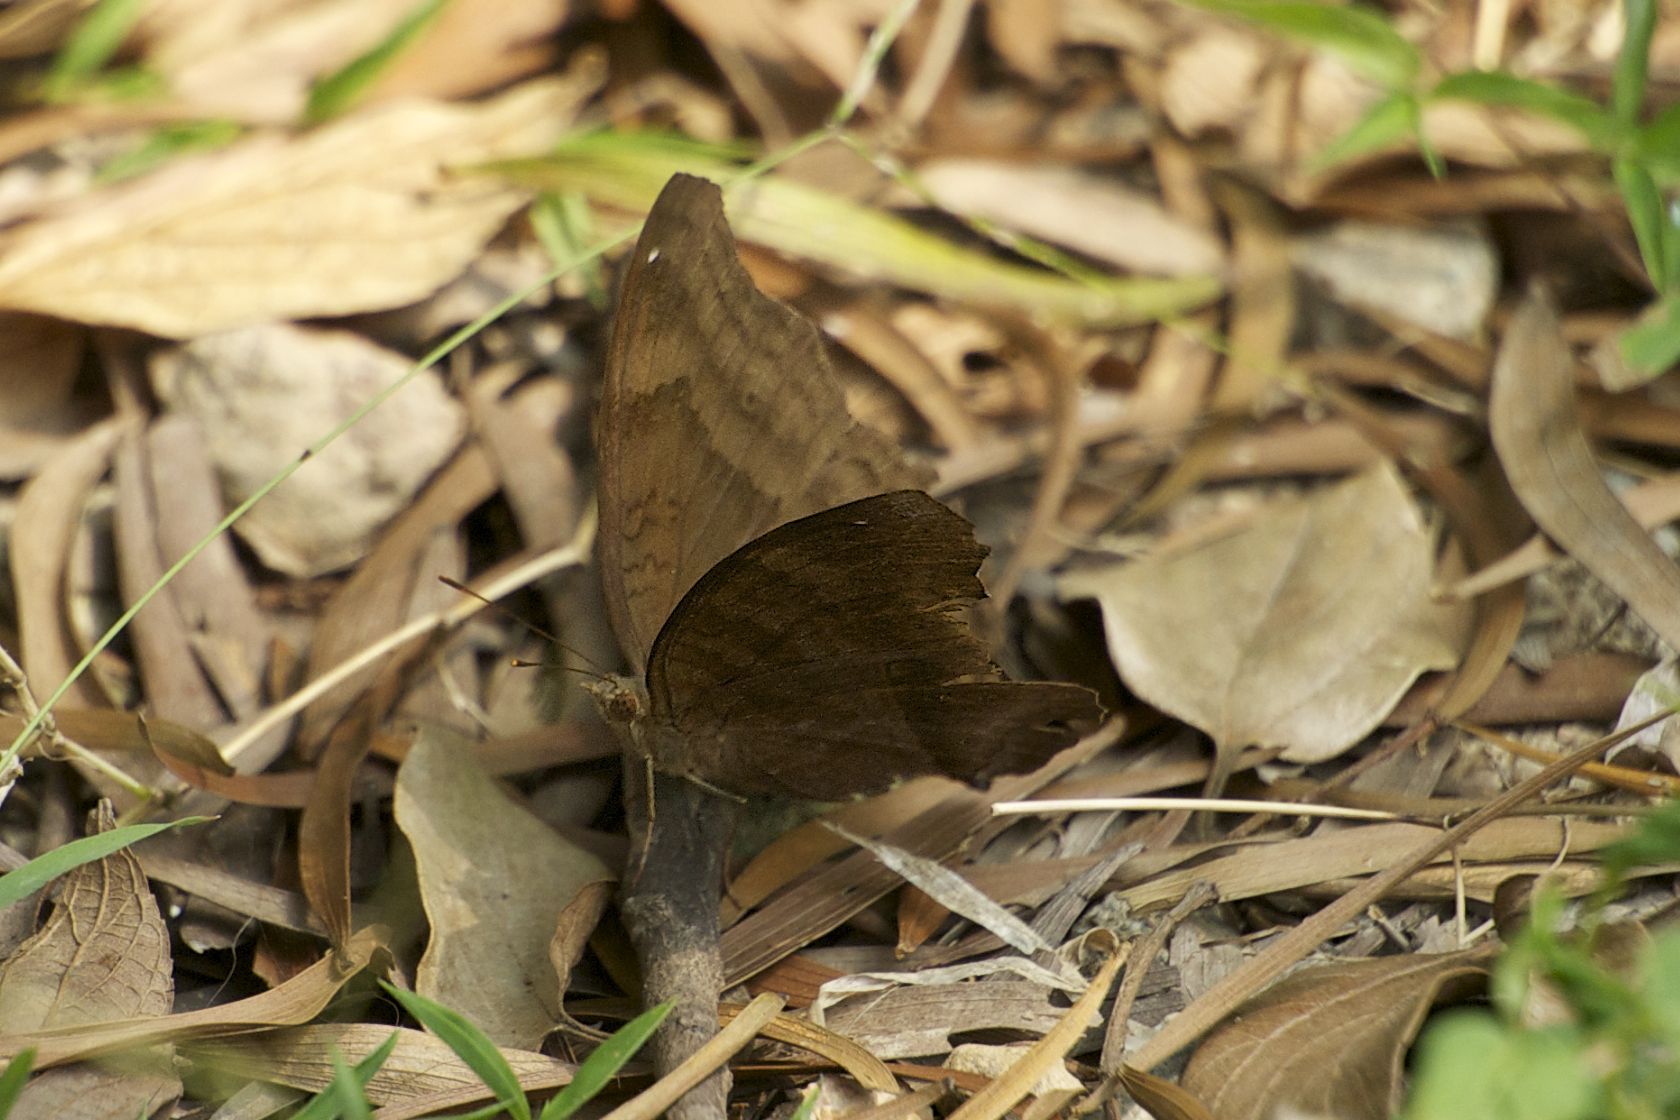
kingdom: Animalia
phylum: Arthropoda
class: Insecta
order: Lepidoptera
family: Nymphalidae
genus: Junonia
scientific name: Junonia iphita
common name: Chocolate pansy
